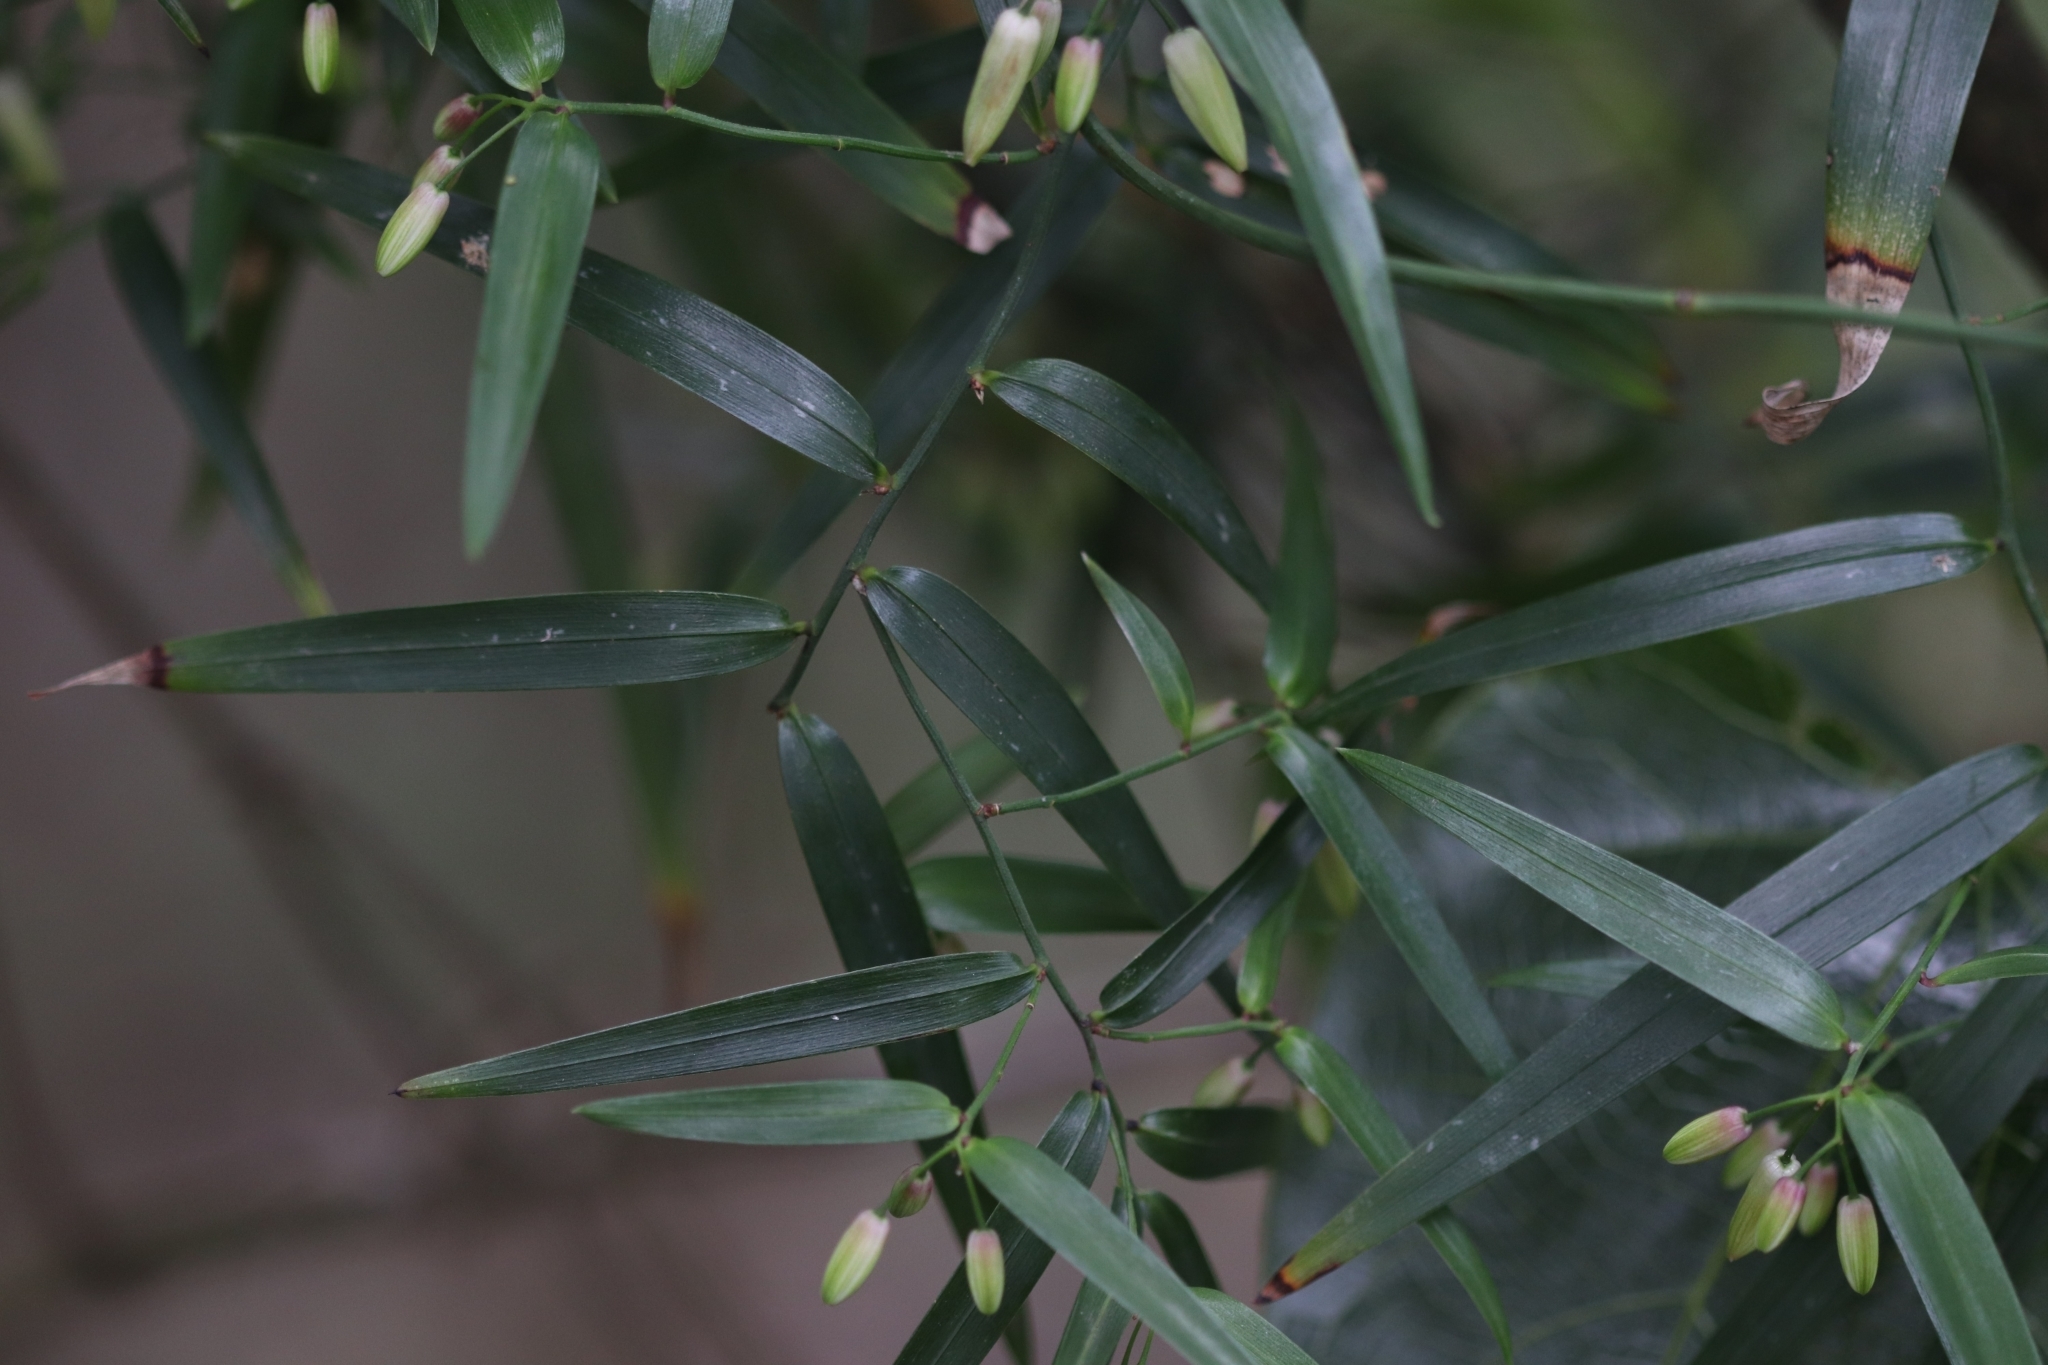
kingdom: Plantae
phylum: Tracheophyta
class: Liliopsida
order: Asparagales
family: Asphodelaceae
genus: Geitonoplesium
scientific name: Geitonoplesium cymosum
